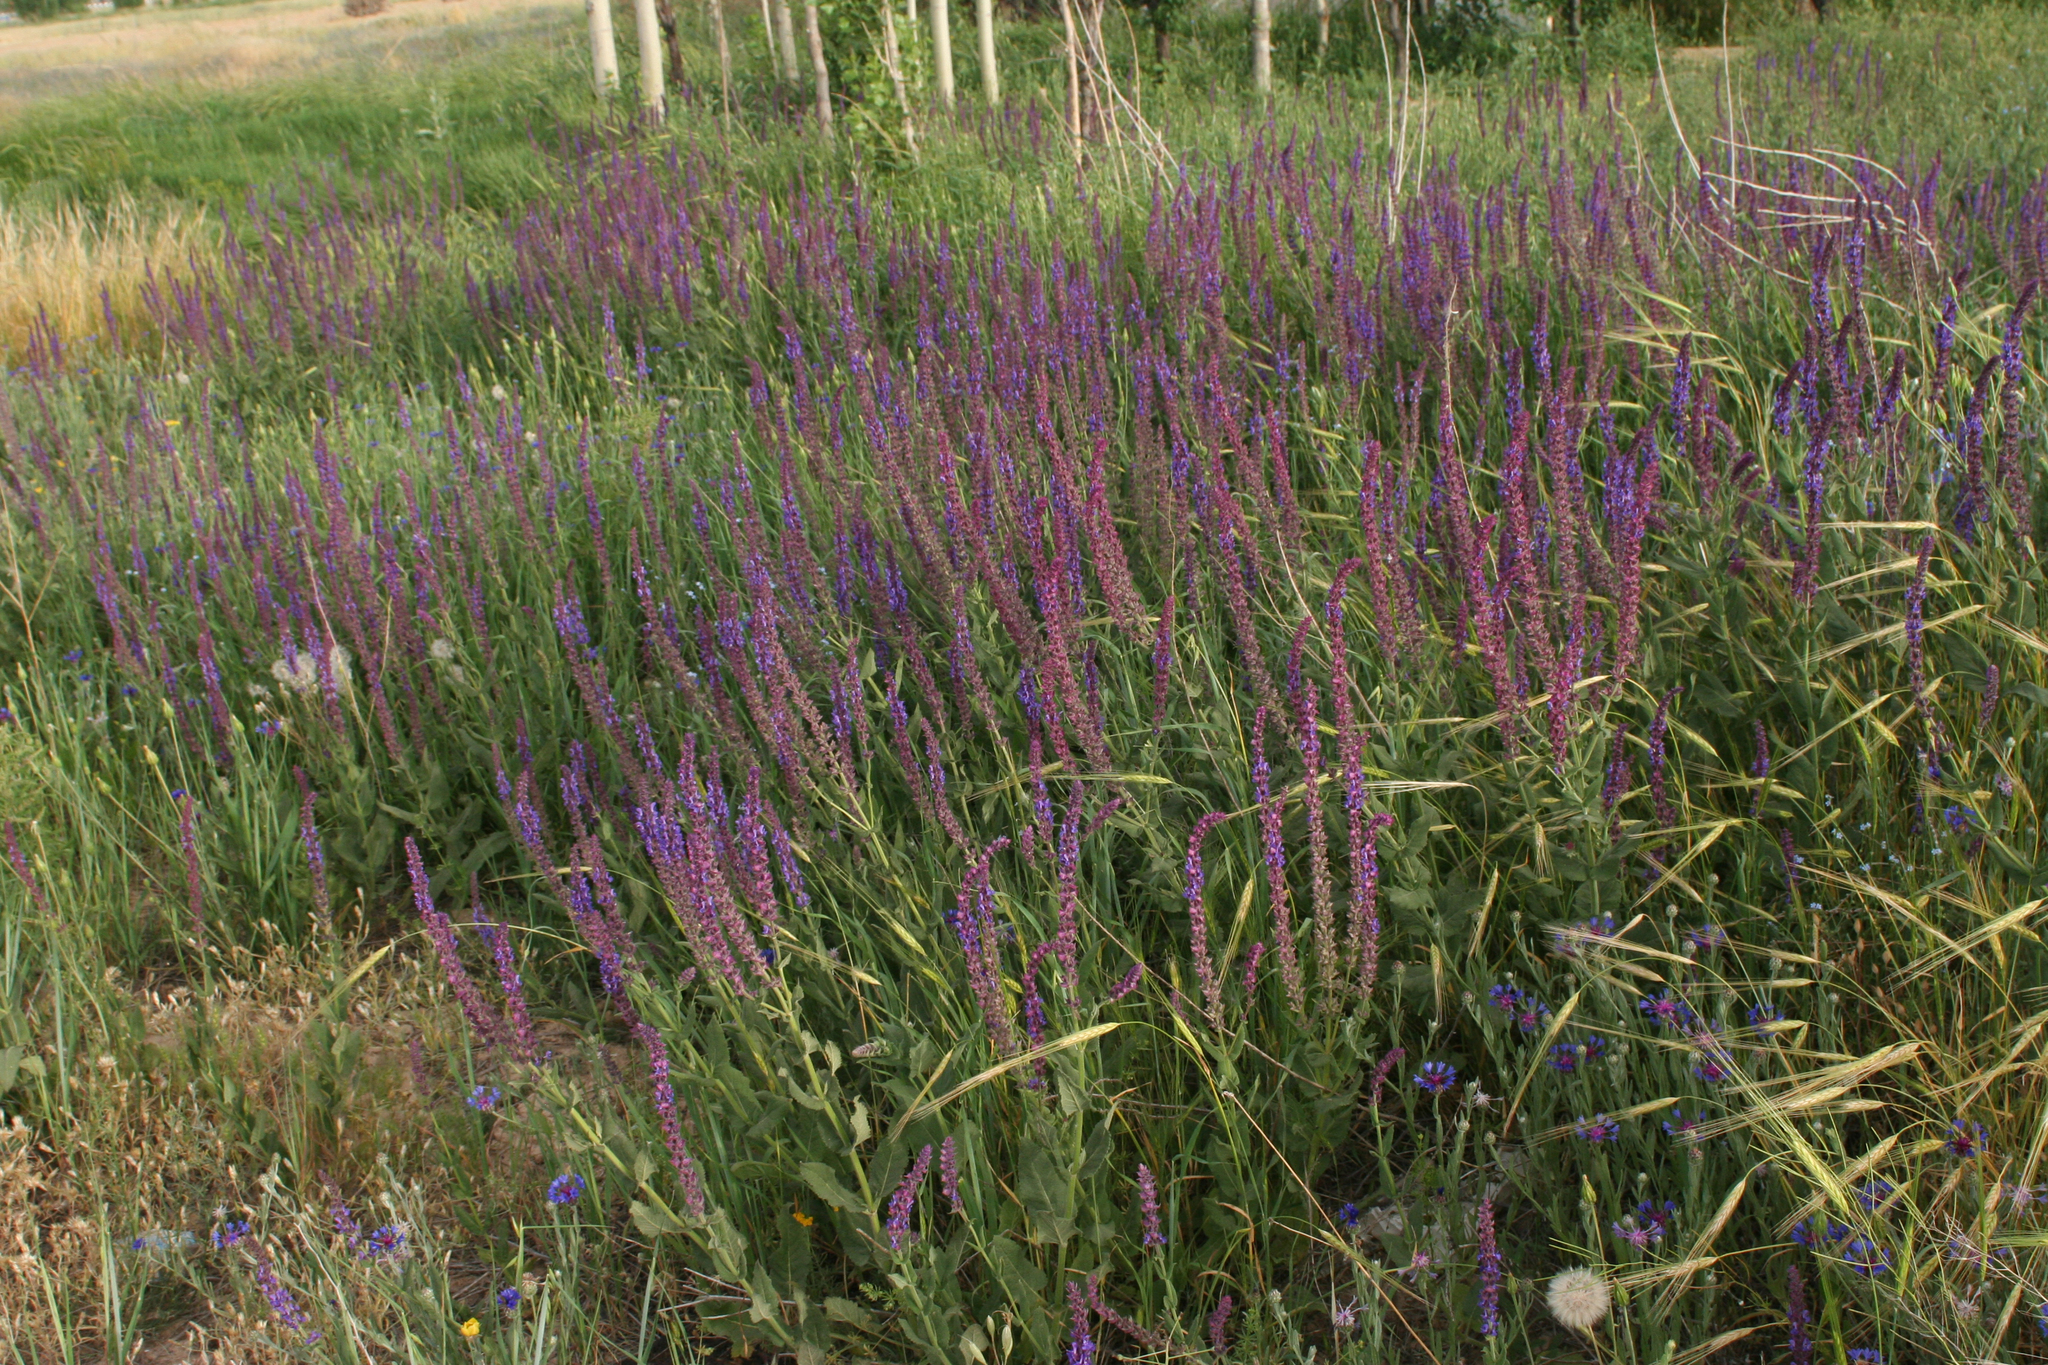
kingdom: Plantae
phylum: Tracheophyta
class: Magnoliopsida
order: Lamiales
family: Lamiaceae
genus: Salvia
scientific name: Salvia nemorosa
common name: Balkan clary
